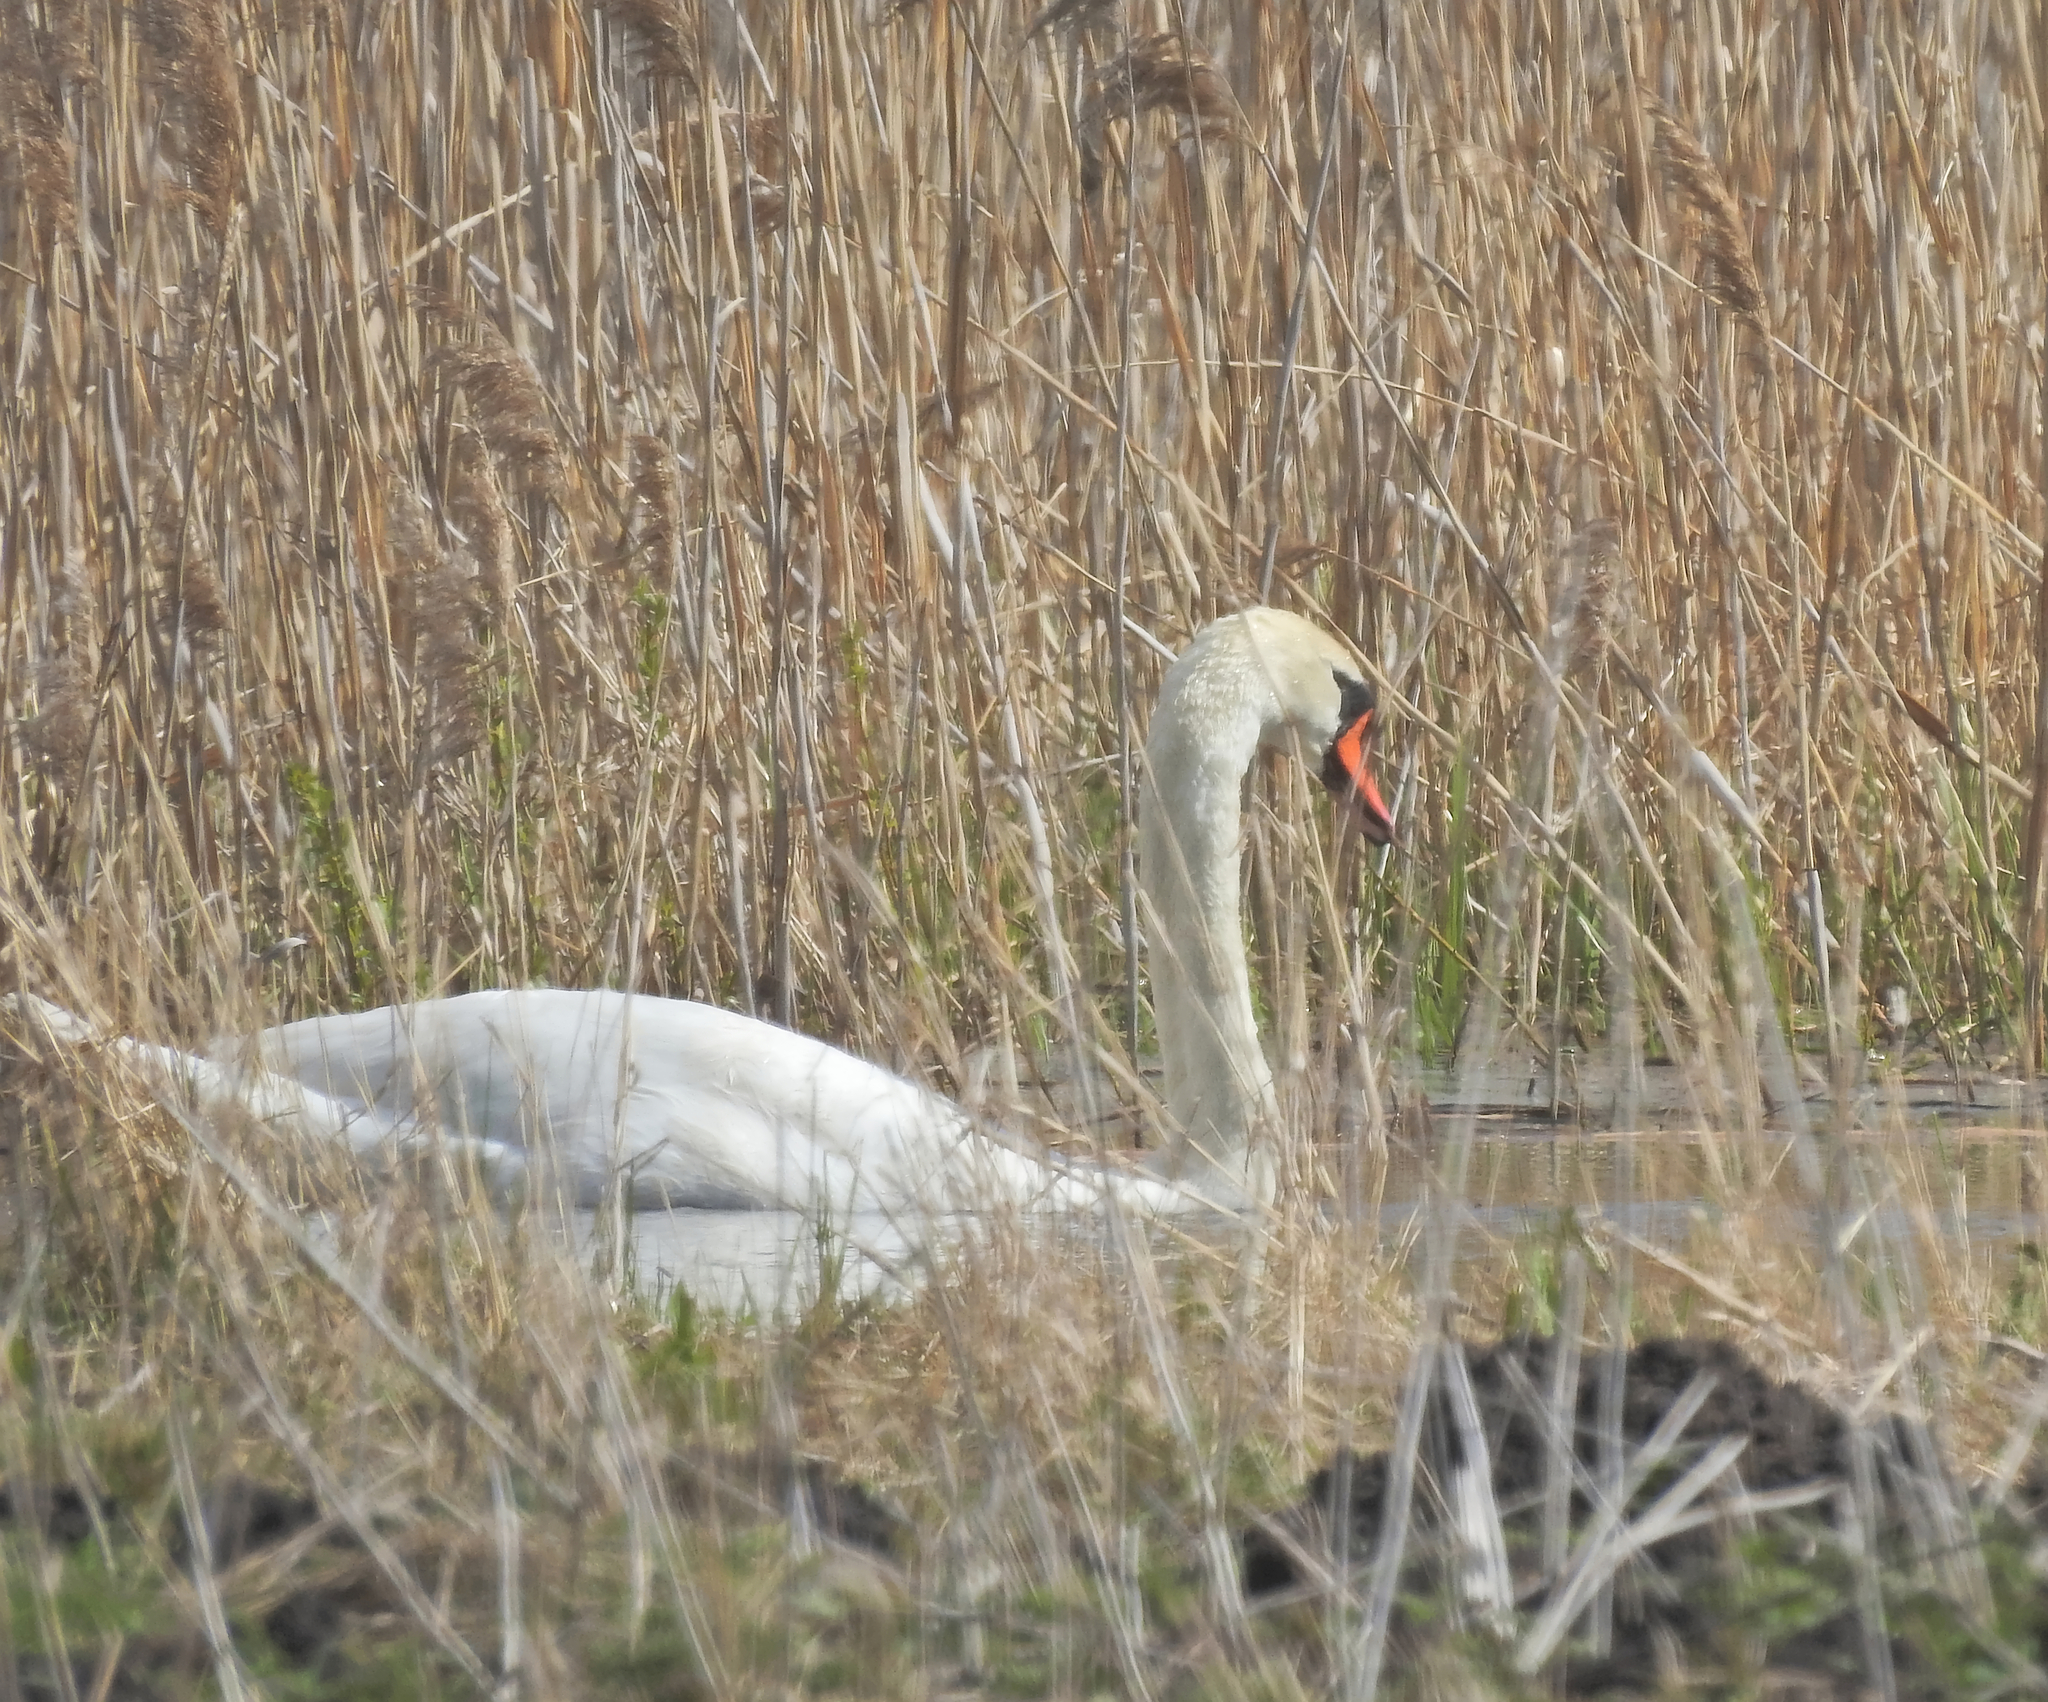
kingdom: Animalia
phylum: Chordata
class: Aves
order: Anseriformes
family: Anatidae
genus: Cygnus
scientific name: Cygnus olor
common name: Mute swan
